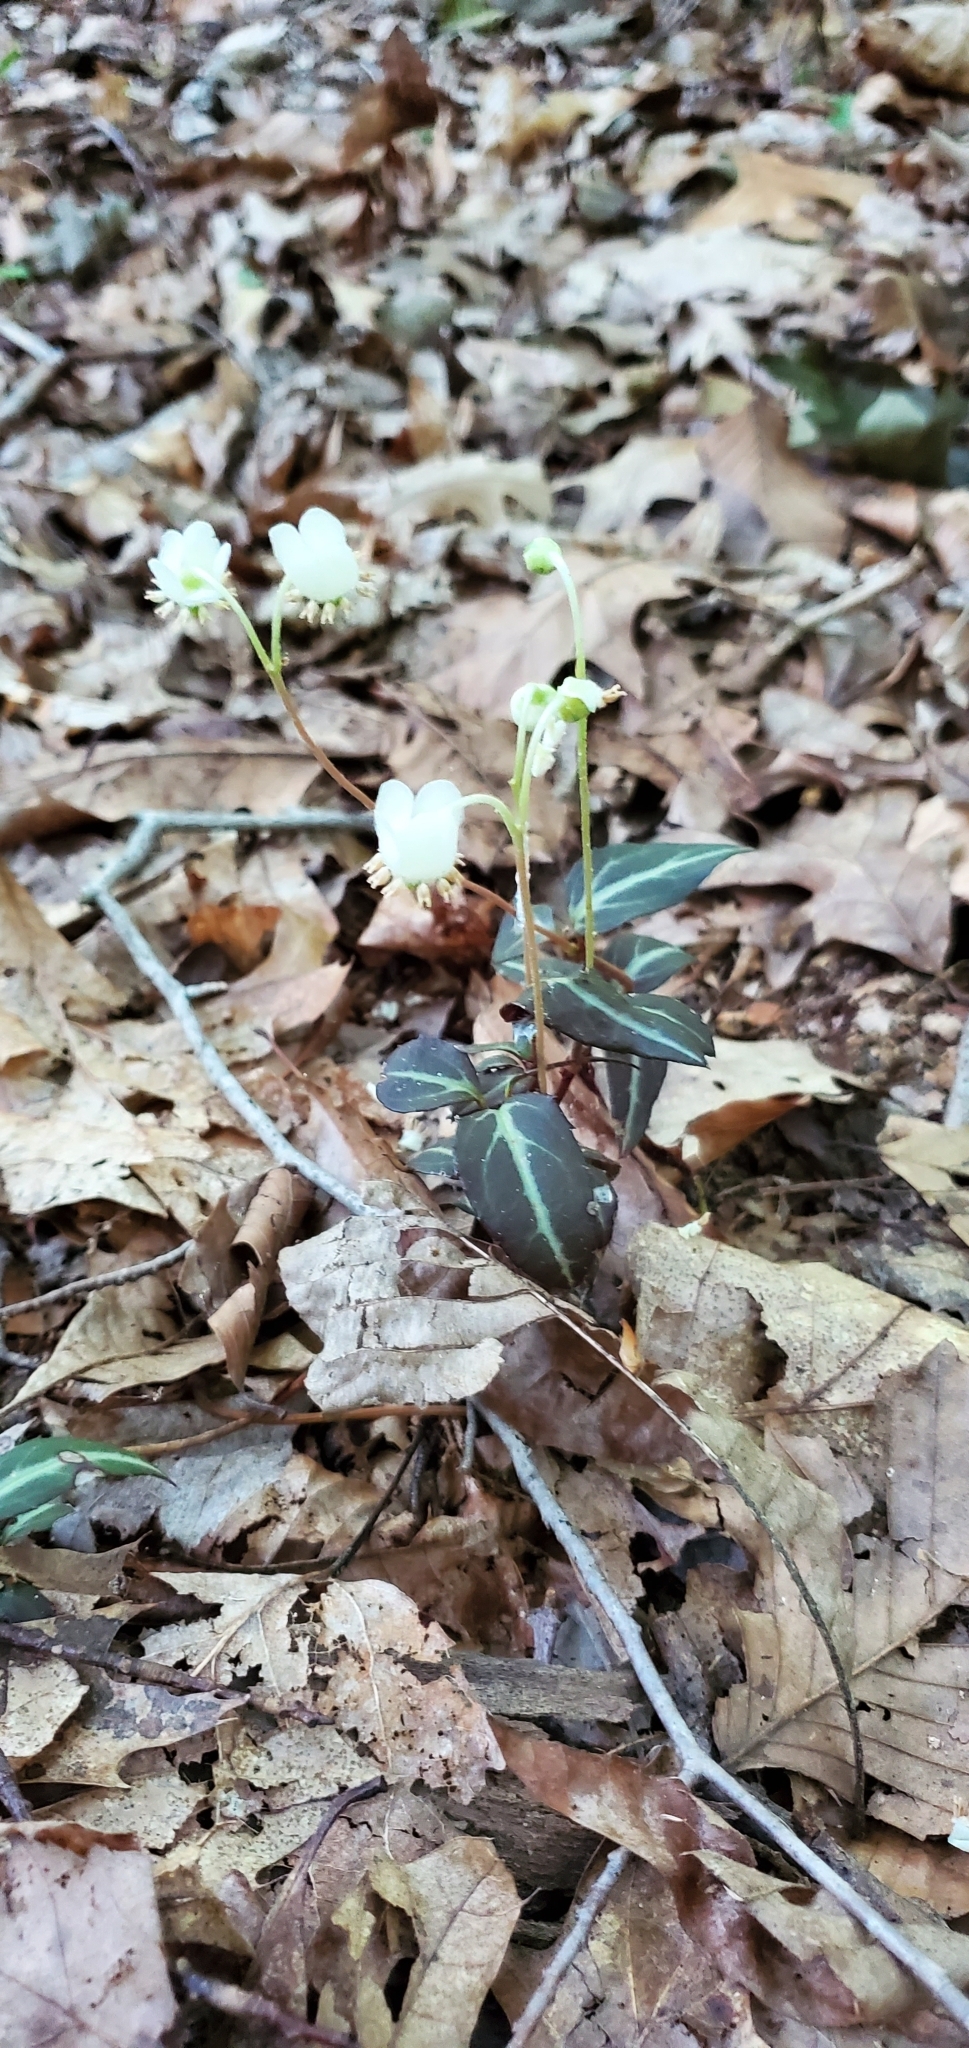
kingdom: Plantae
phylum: Tracheophyta
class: Magnoliopsida
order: Ericales
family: Ericaceae
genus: Chimaphila
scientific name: Chimaphila maculata
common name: Spotted pipsissewa
